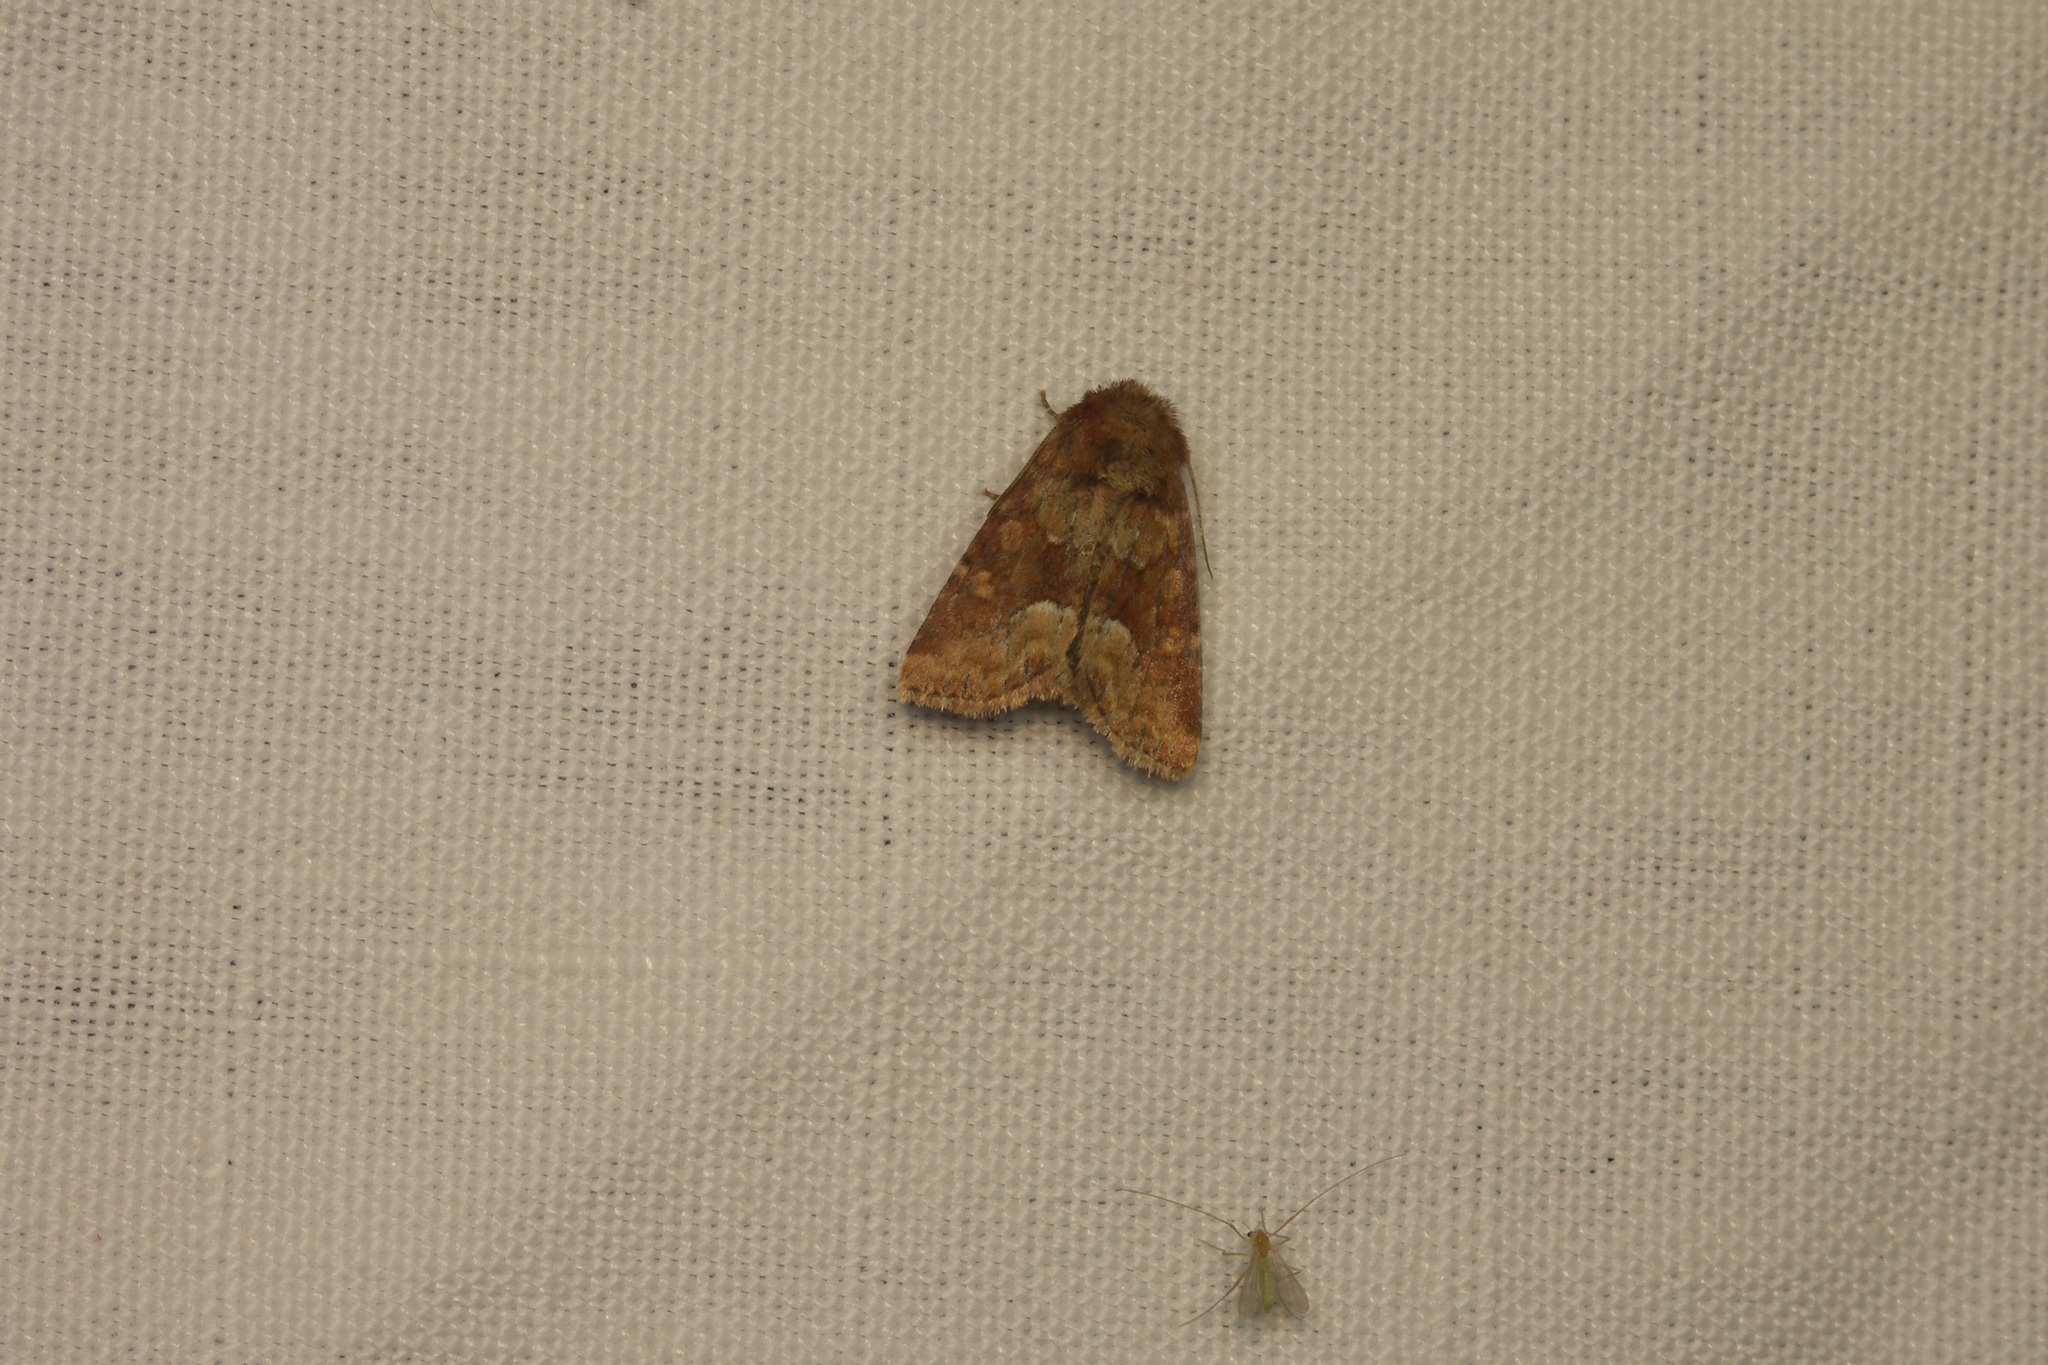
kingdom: Animalia
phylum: Arthropoda
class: Insecta
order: Lepidoptera
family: Noctuidae
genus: Oligia
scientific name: Oligia fasciuncula
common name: Middle-barred minor
